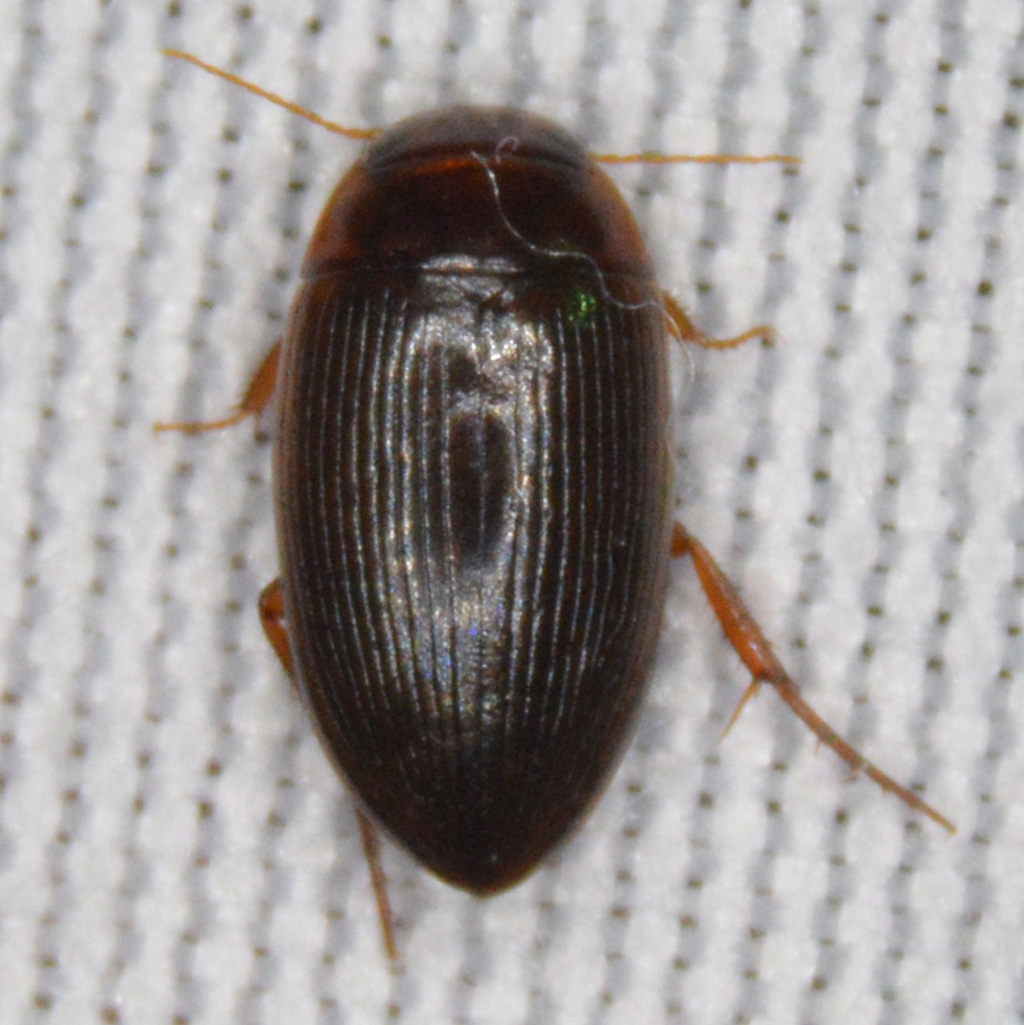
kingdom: Animalia
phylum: Arthropoda
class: Insecta
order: Coleoptera
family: Dytiscidae
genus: Copelatus
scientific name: Copelatus glyphicus
